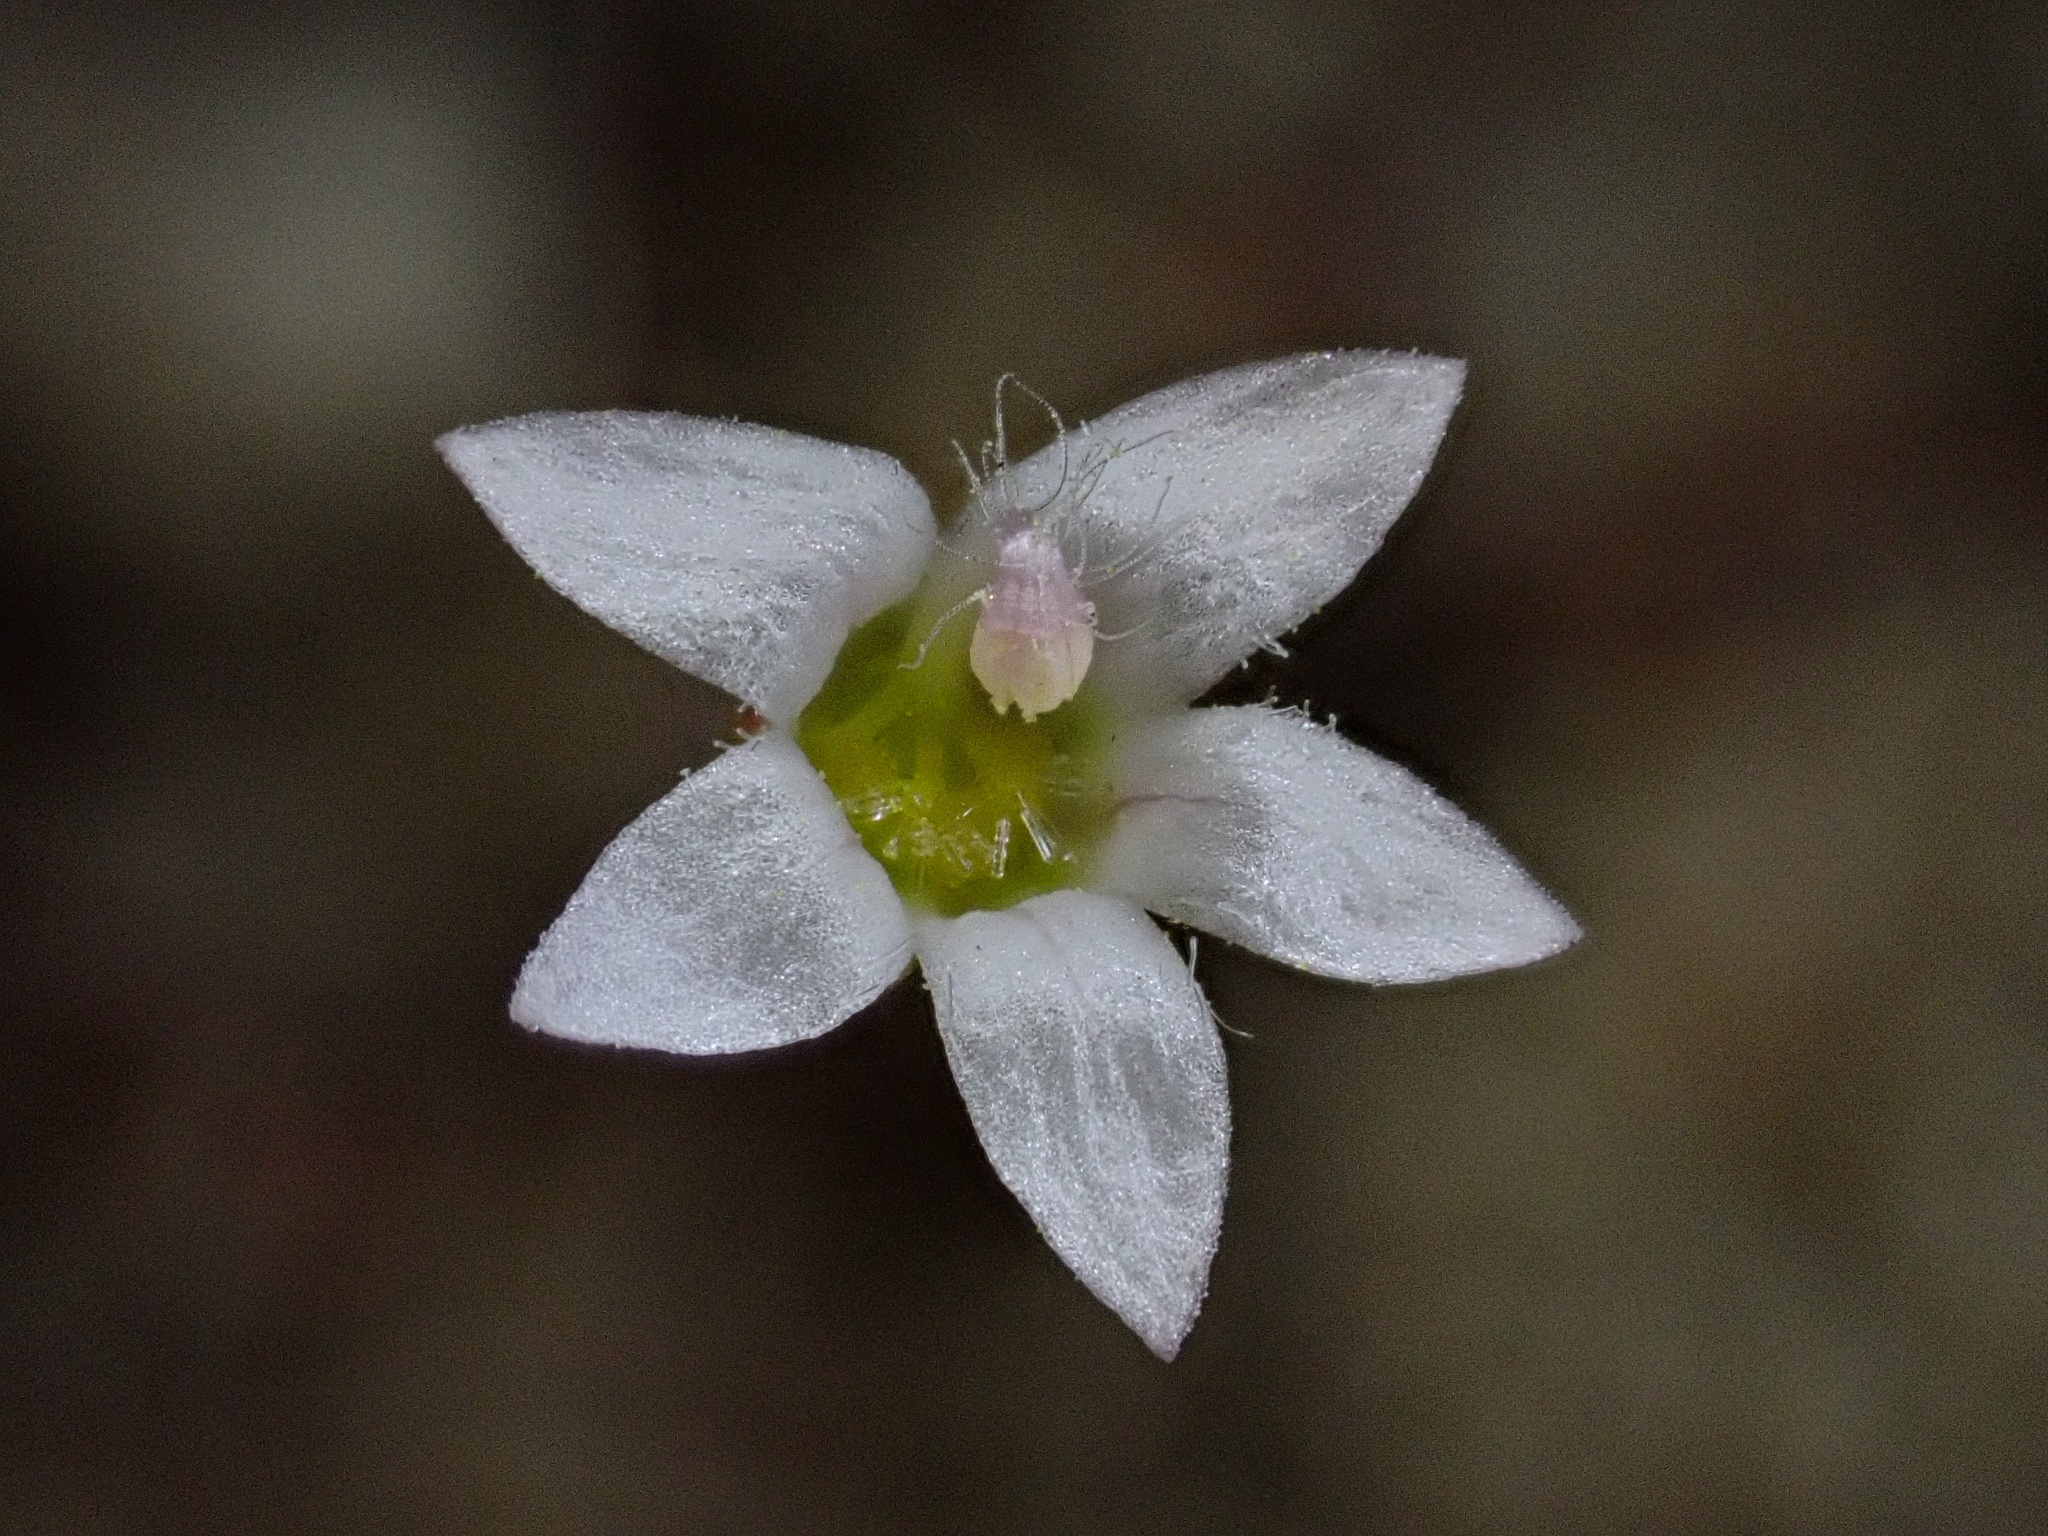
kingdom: Plantae
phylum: Tracheophyta
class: Magnoliopsida
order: Asterales
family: Campanulaceae
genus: Nemacladus
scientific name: Nemacladus gracilis
